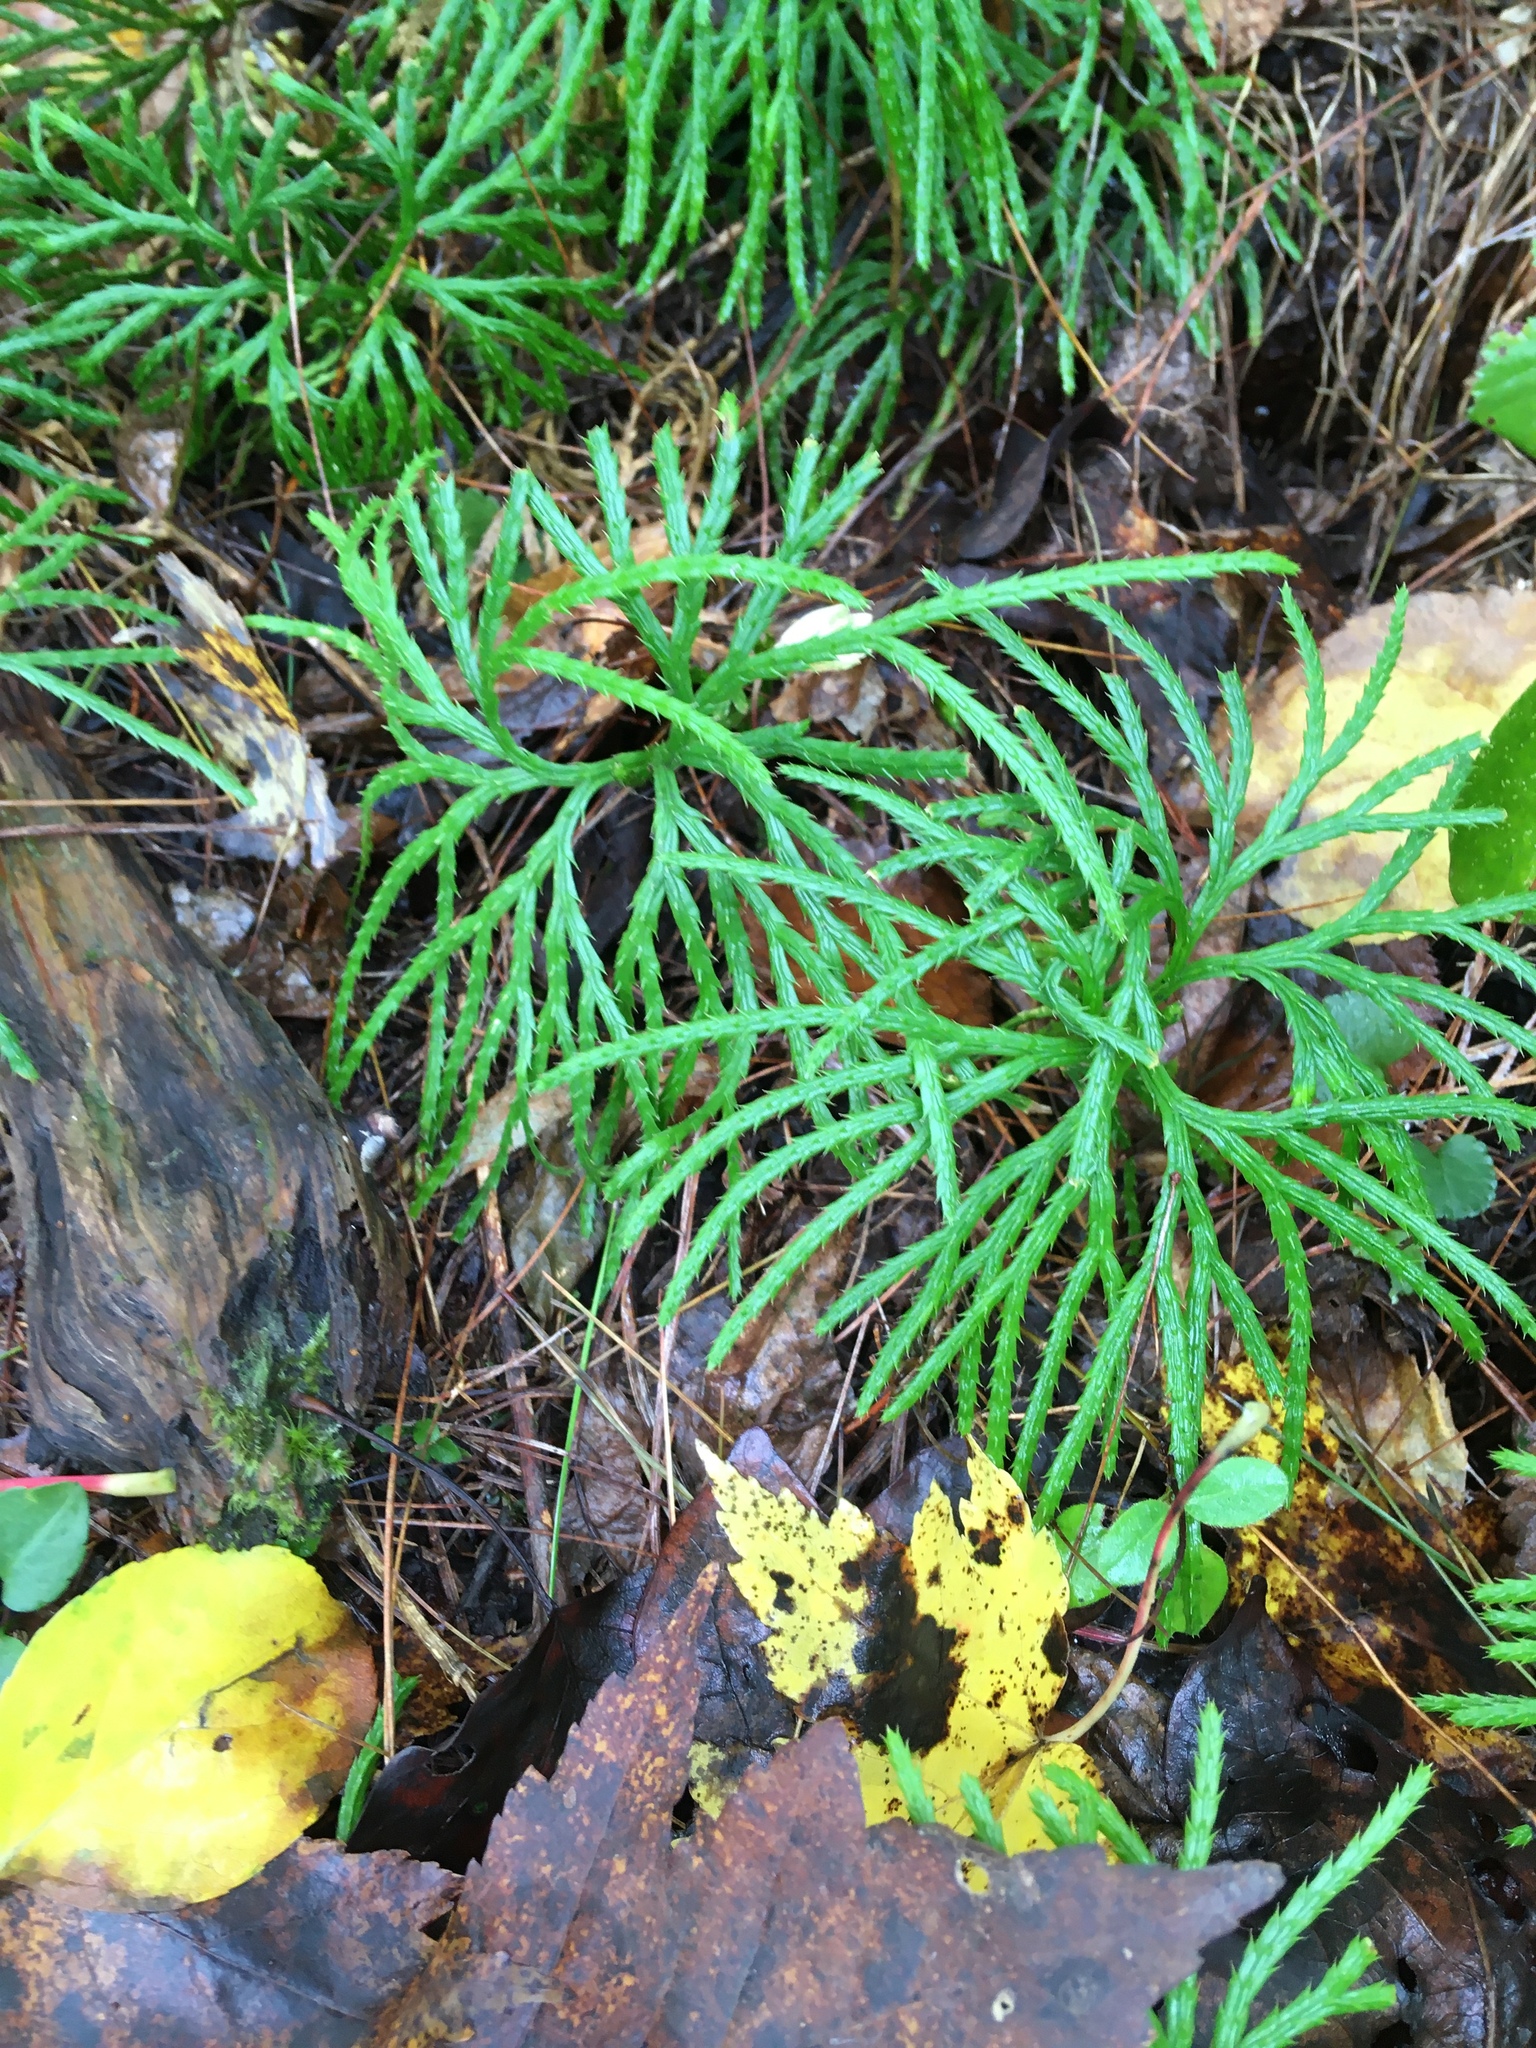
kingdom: Plantae
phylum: Tracheophyta
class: Lycopodiopsida
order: Lycopodiales
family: Lycopodiaceae
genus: Diphasiastrum
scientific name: Diphasiastrum digitatum
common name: Southern running-pine
